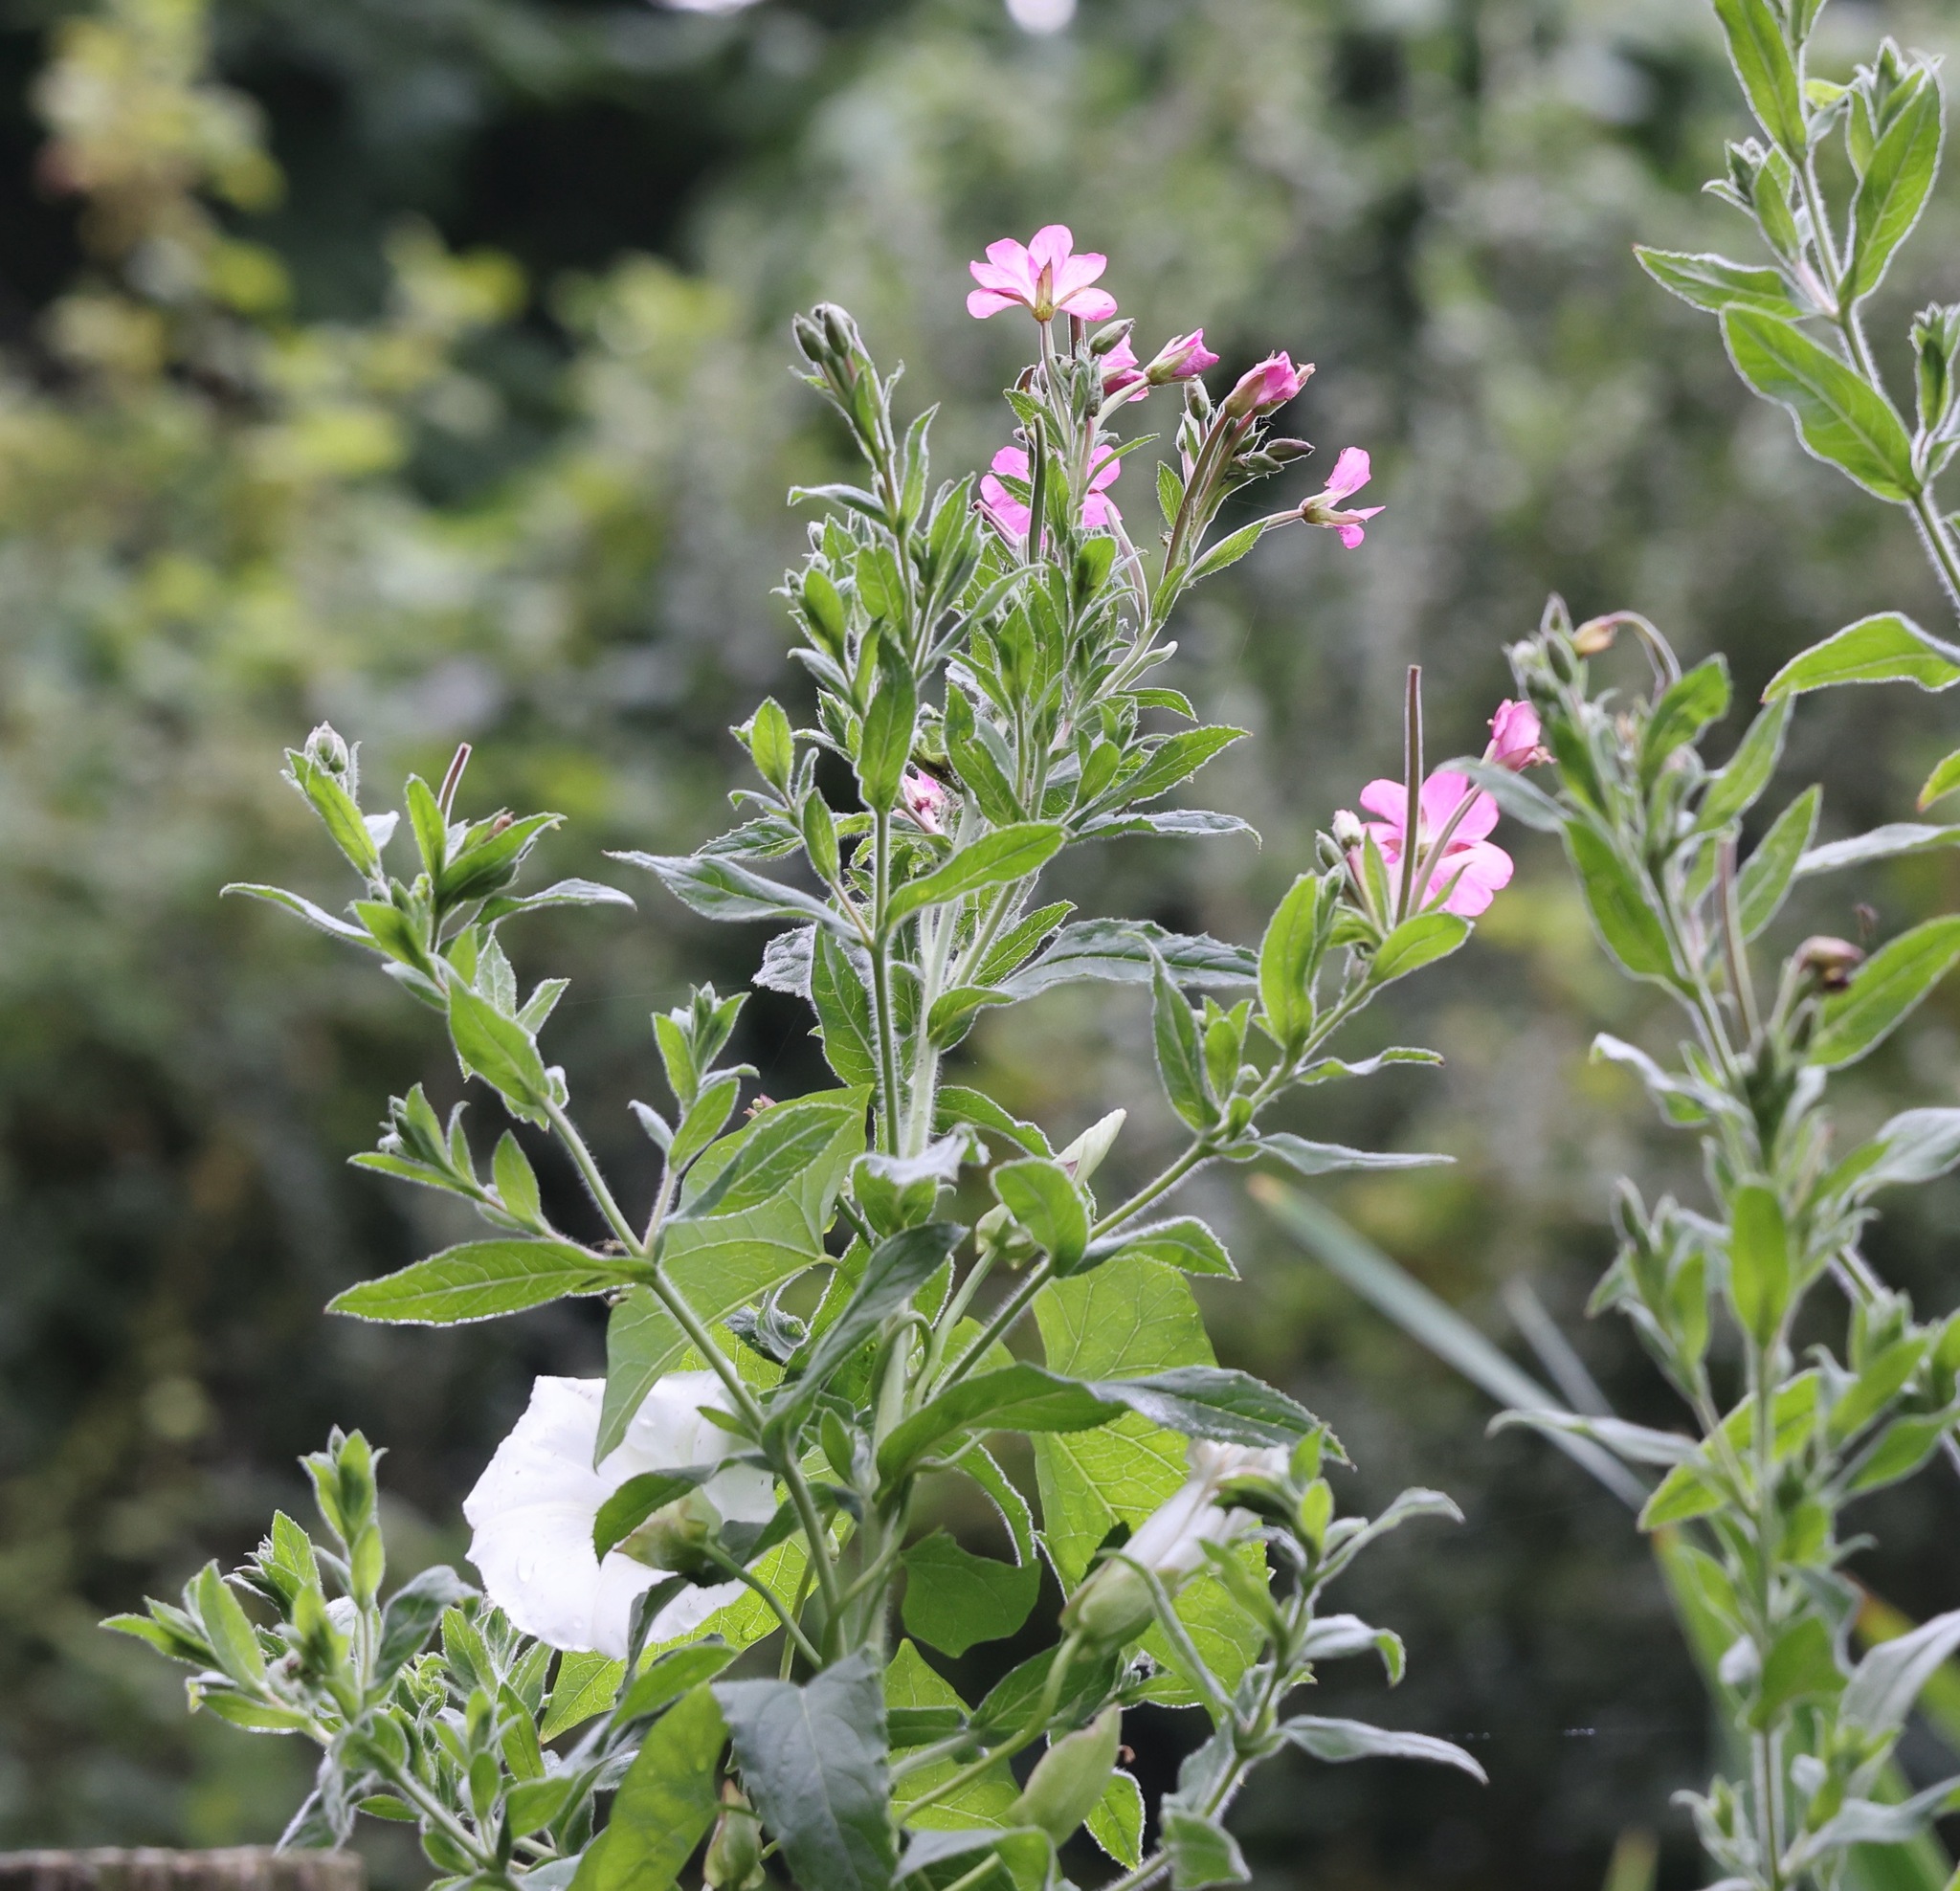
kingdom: Plantae
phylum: Tracheophyta
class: Magnoliopsida
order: Myrtales
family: Onagraceae
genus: Epilobium
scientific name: Epilobium hirsutum
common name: Great willowherb
